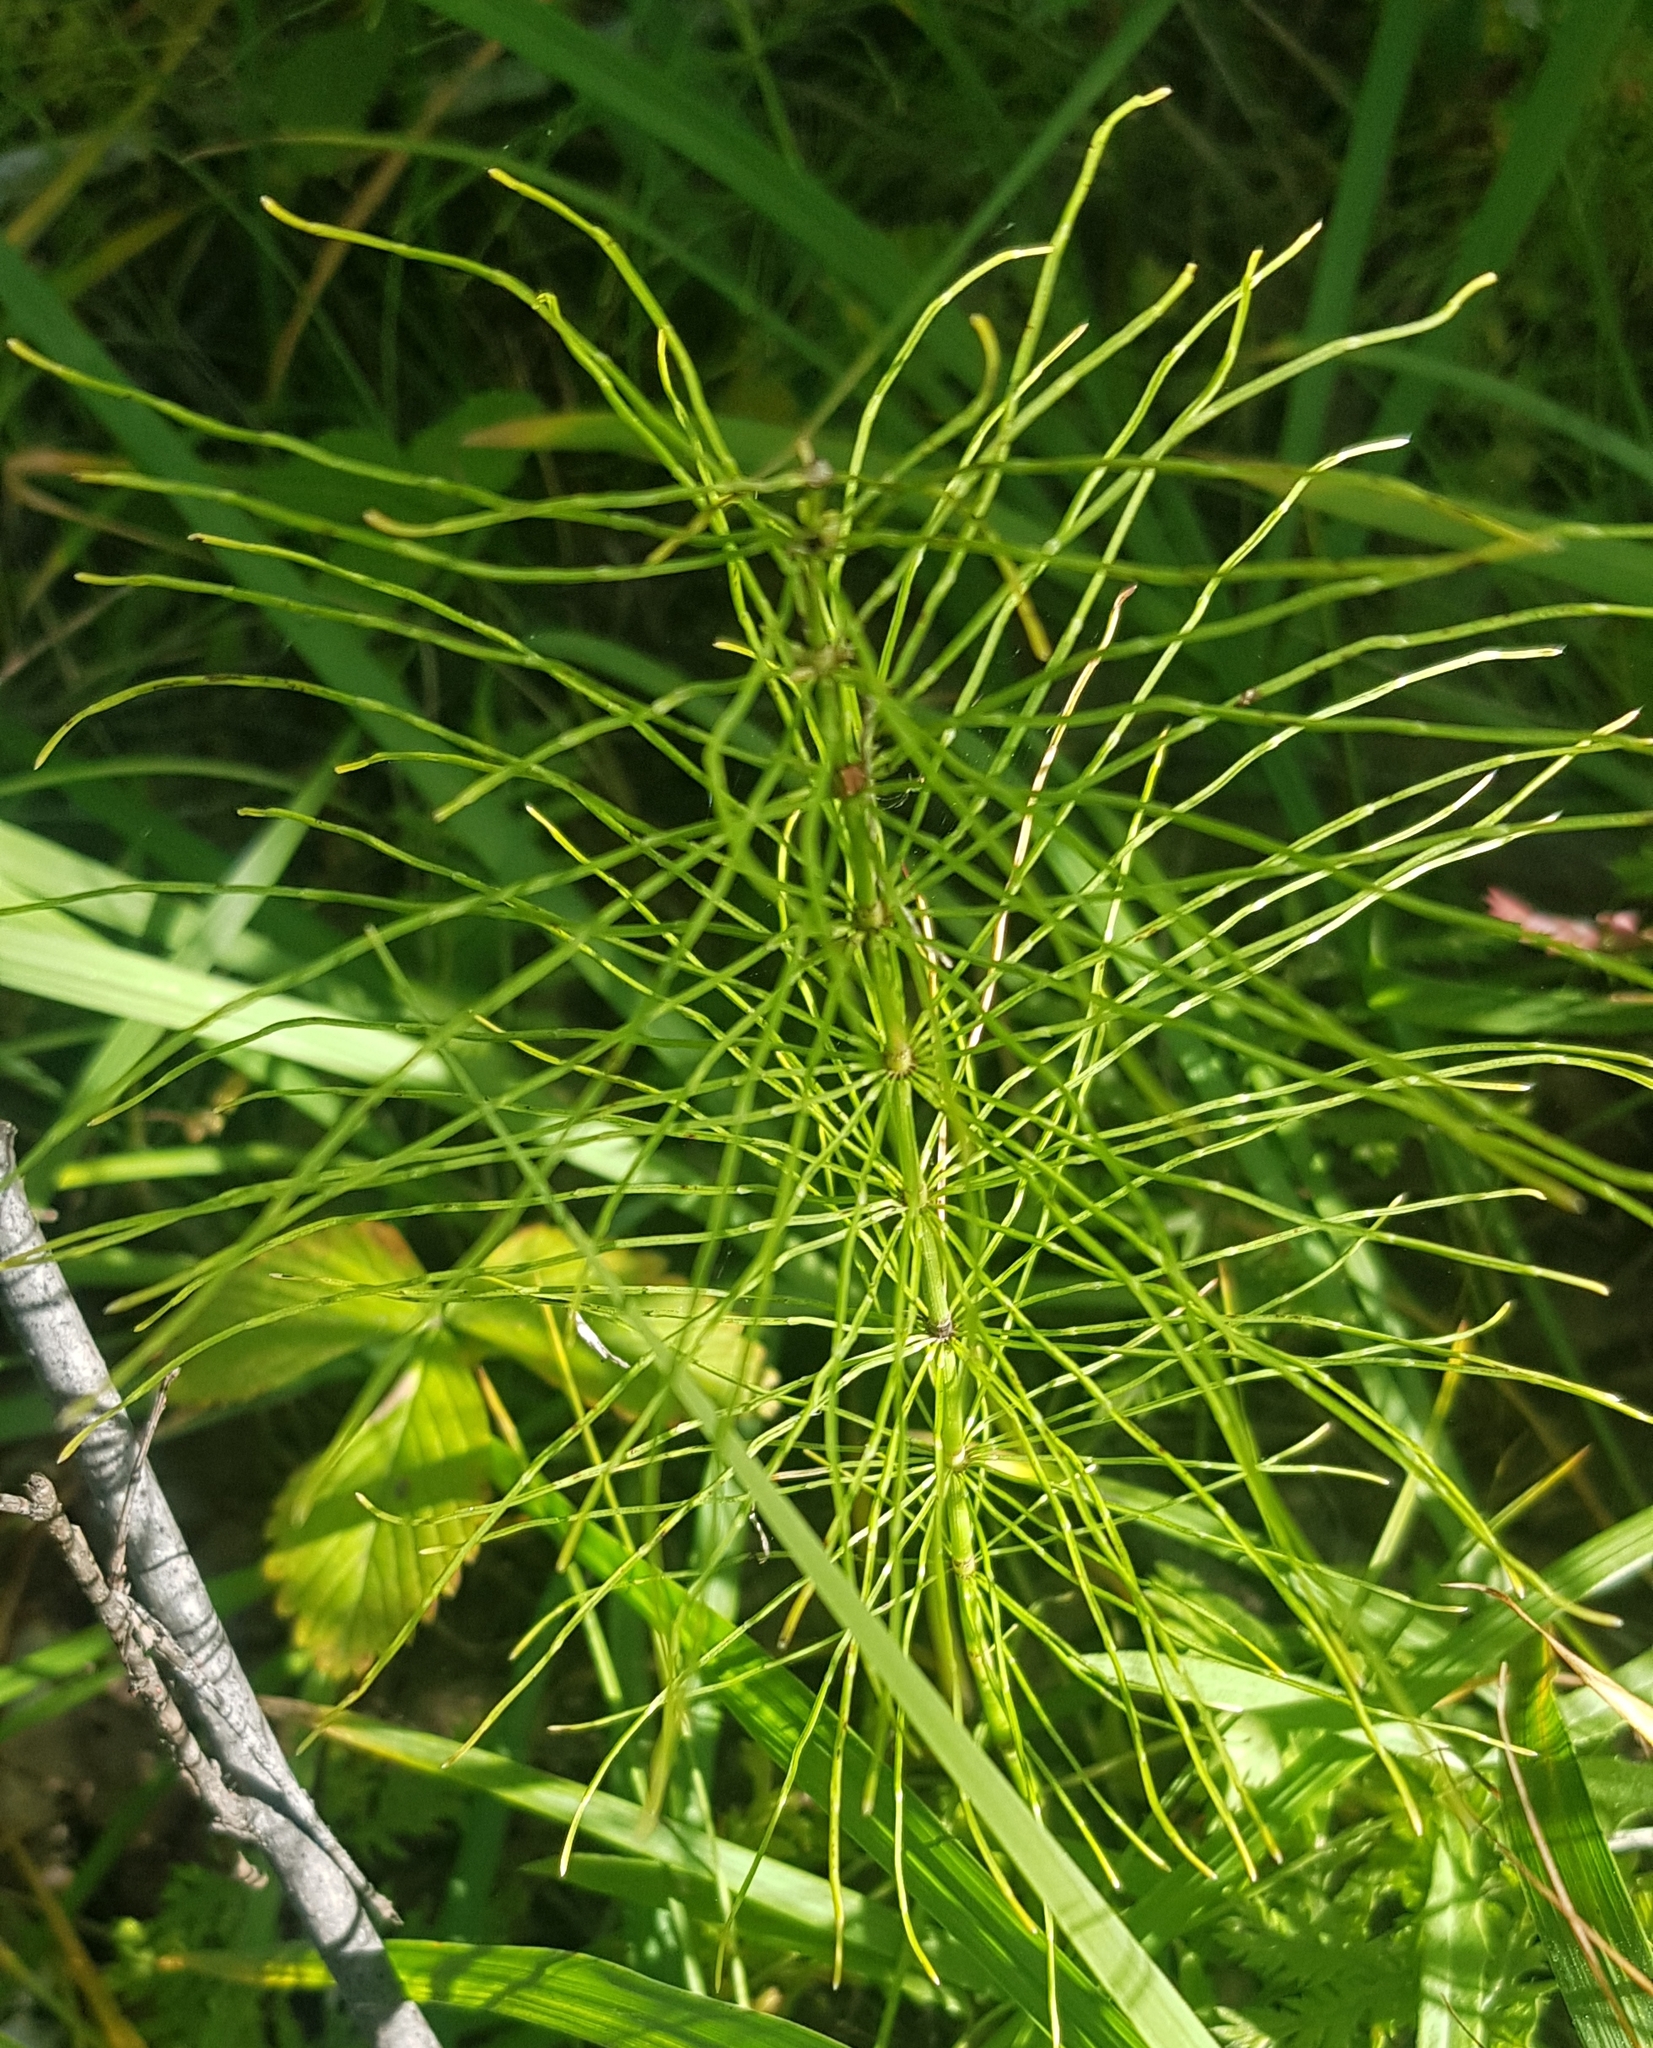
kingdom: Plantae
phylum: Tracheophyta
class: Polypodiopsida
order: Equisetales
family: Equisetaceae
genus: Equisetum
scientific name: Equisetum pratense
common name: Meadow horsetail
